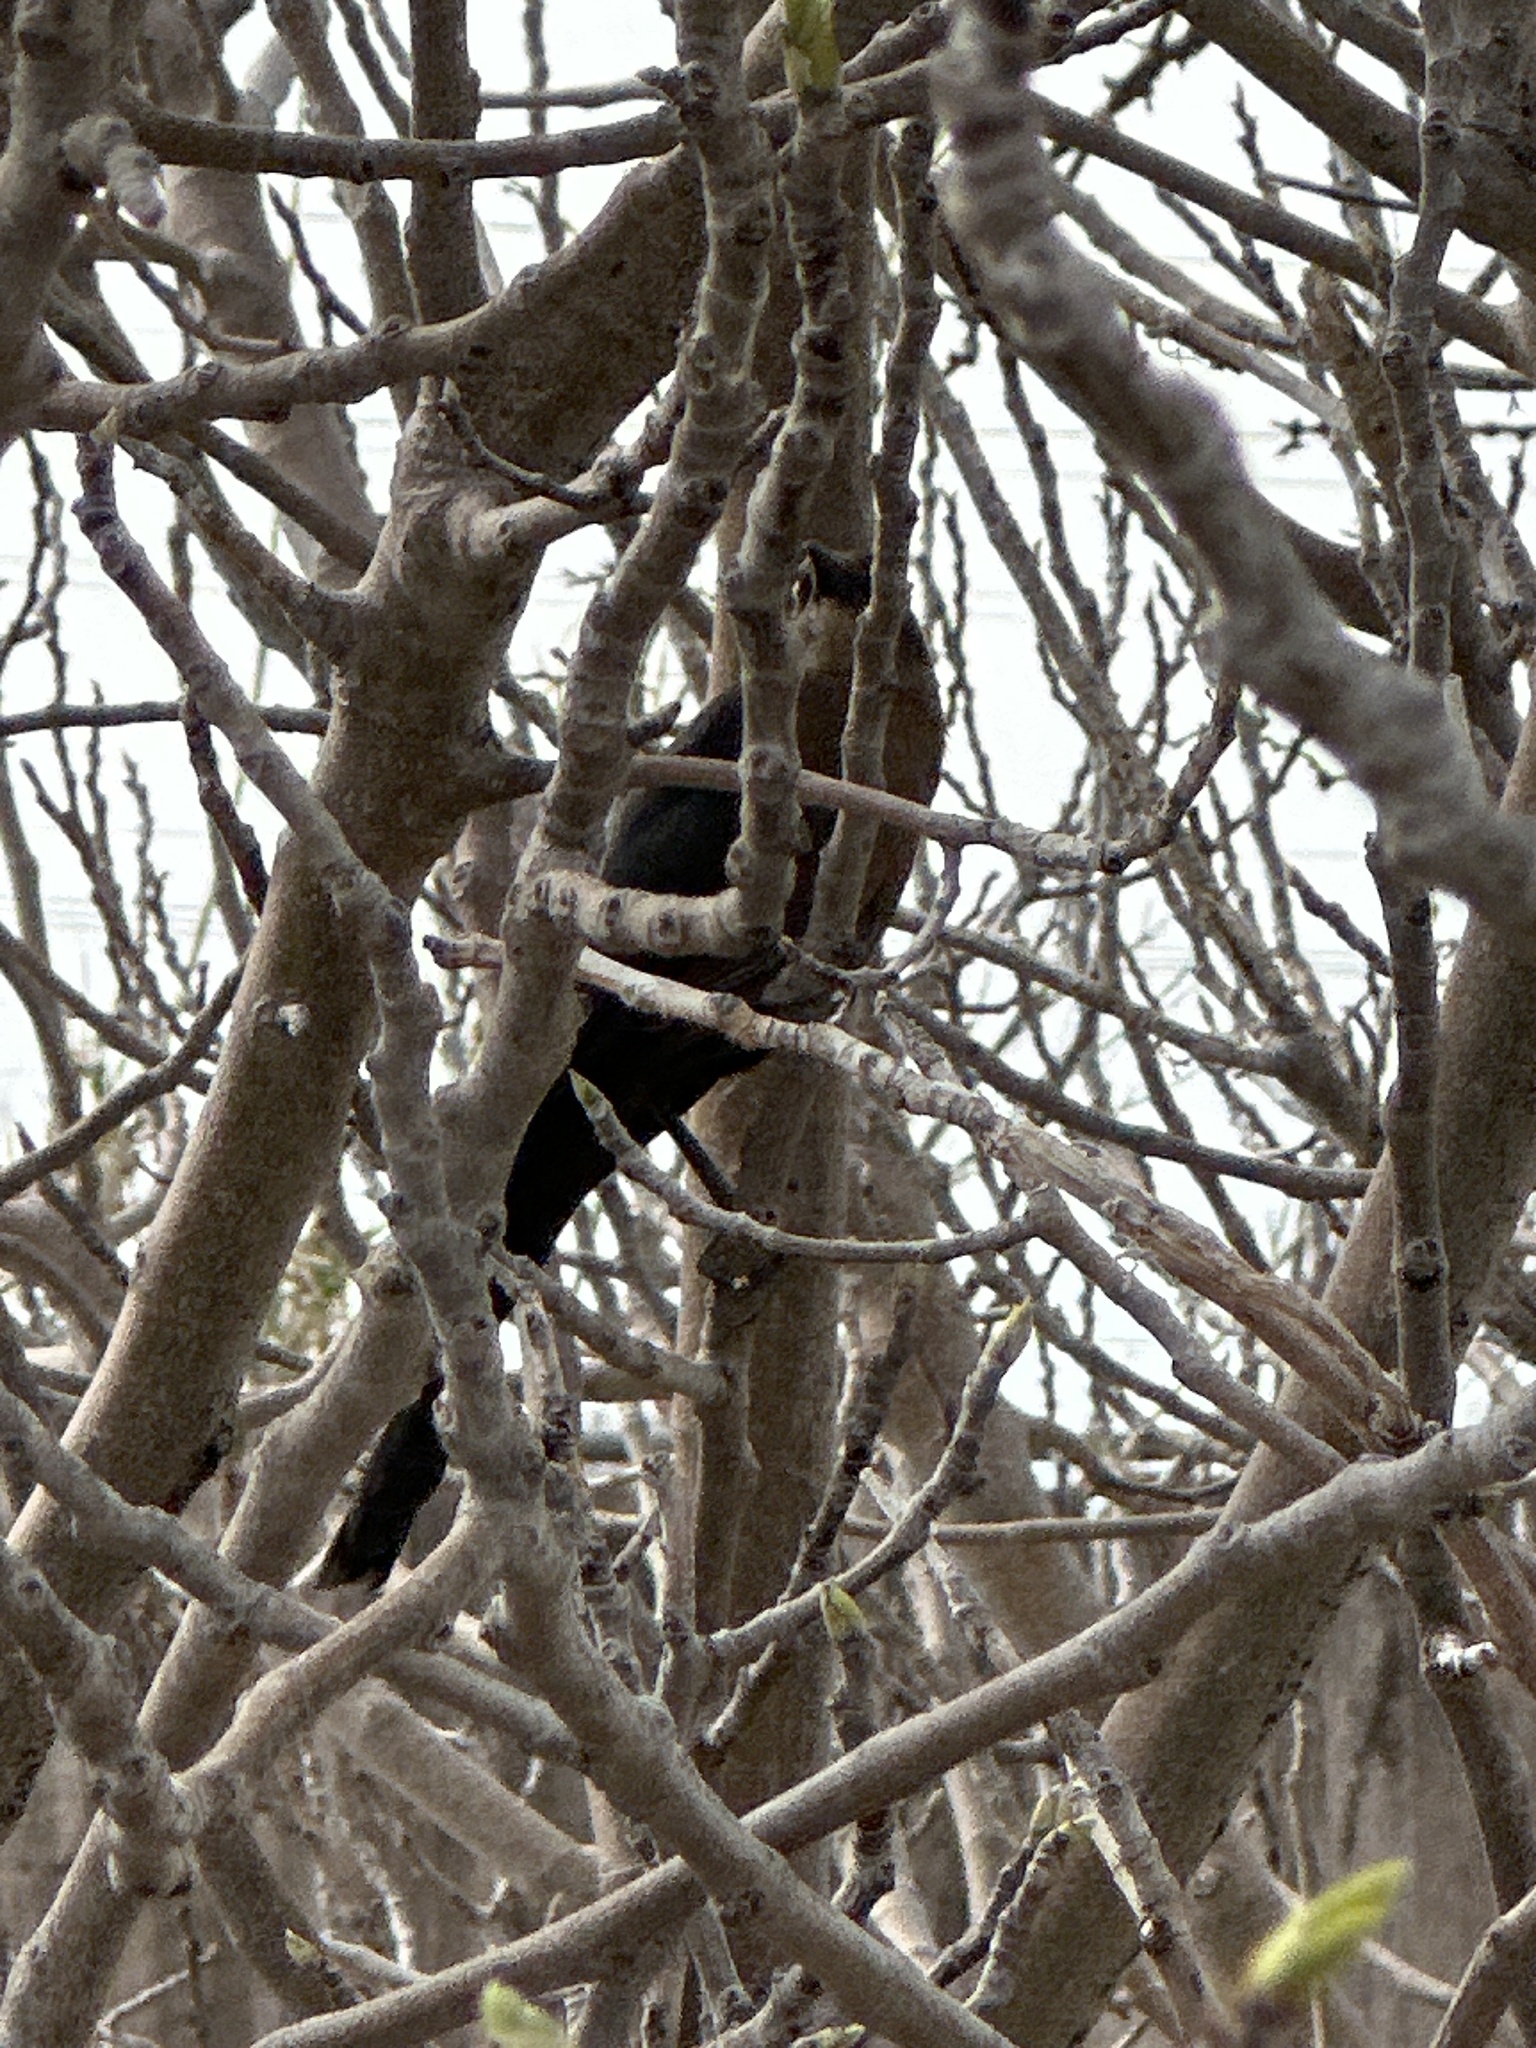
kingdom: Animalia
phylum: Chordata
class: Aves
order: Passeriformes
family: Icteridae
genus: Quiscalus
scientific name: Quiscalus mexicanus
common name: Great-tailed grackle
